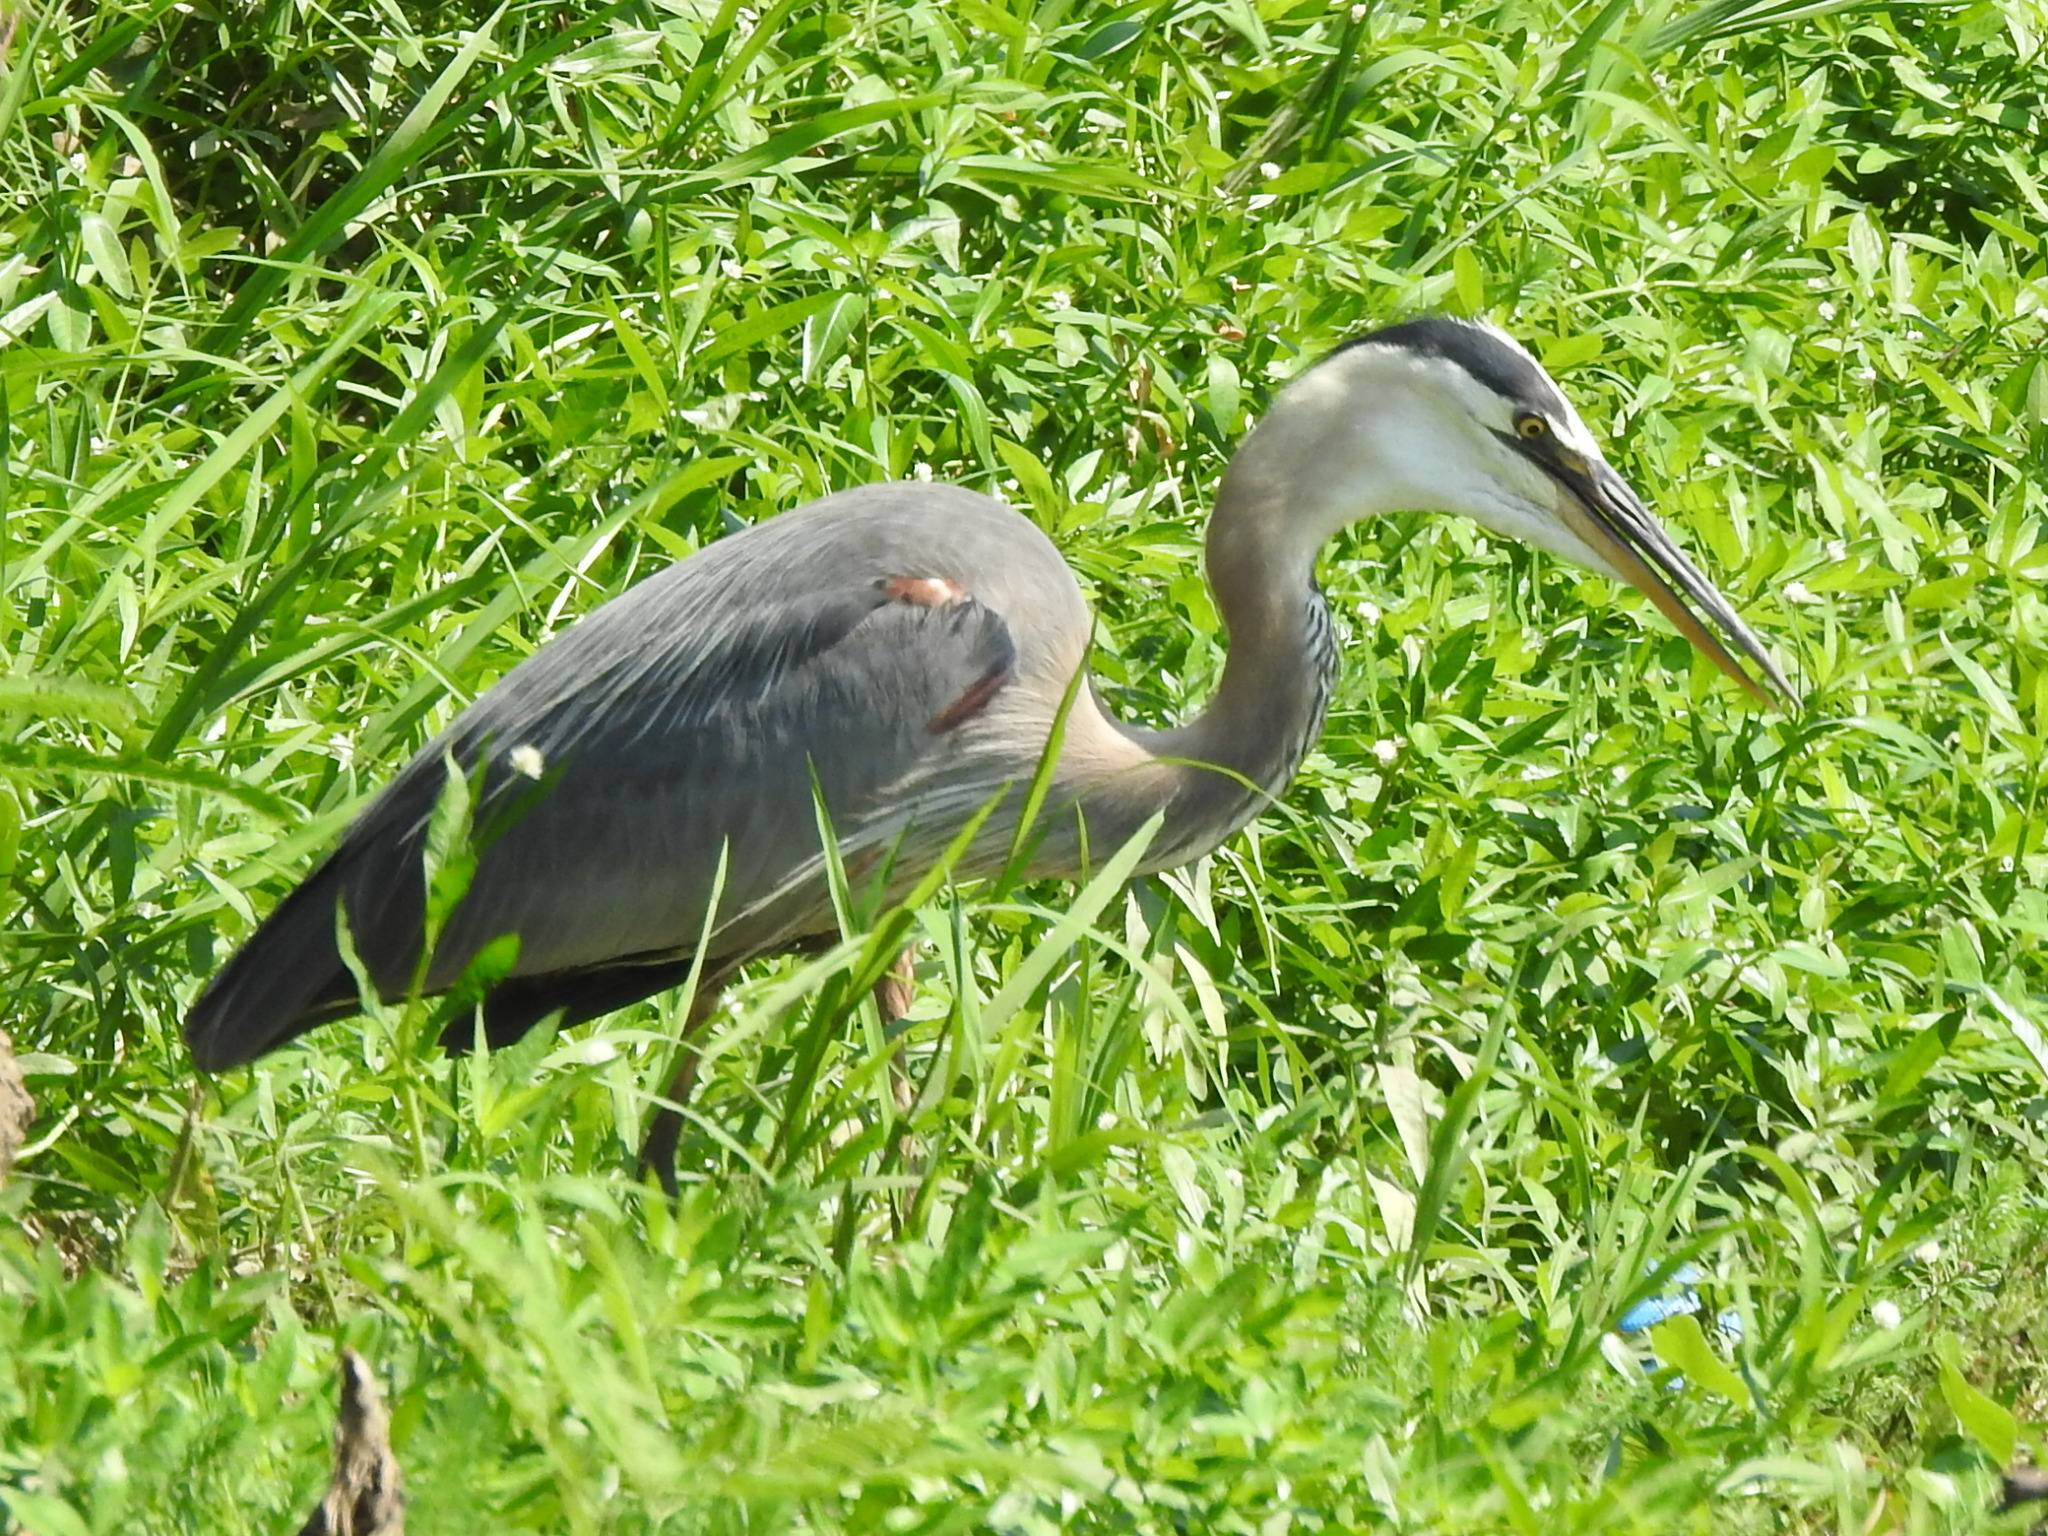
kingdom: Animalia
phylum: Chordata
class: Aves
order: Pelecaniformes
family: Ardeidae
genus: Ardea
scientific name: Ardea herodias
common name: Great blue heron
